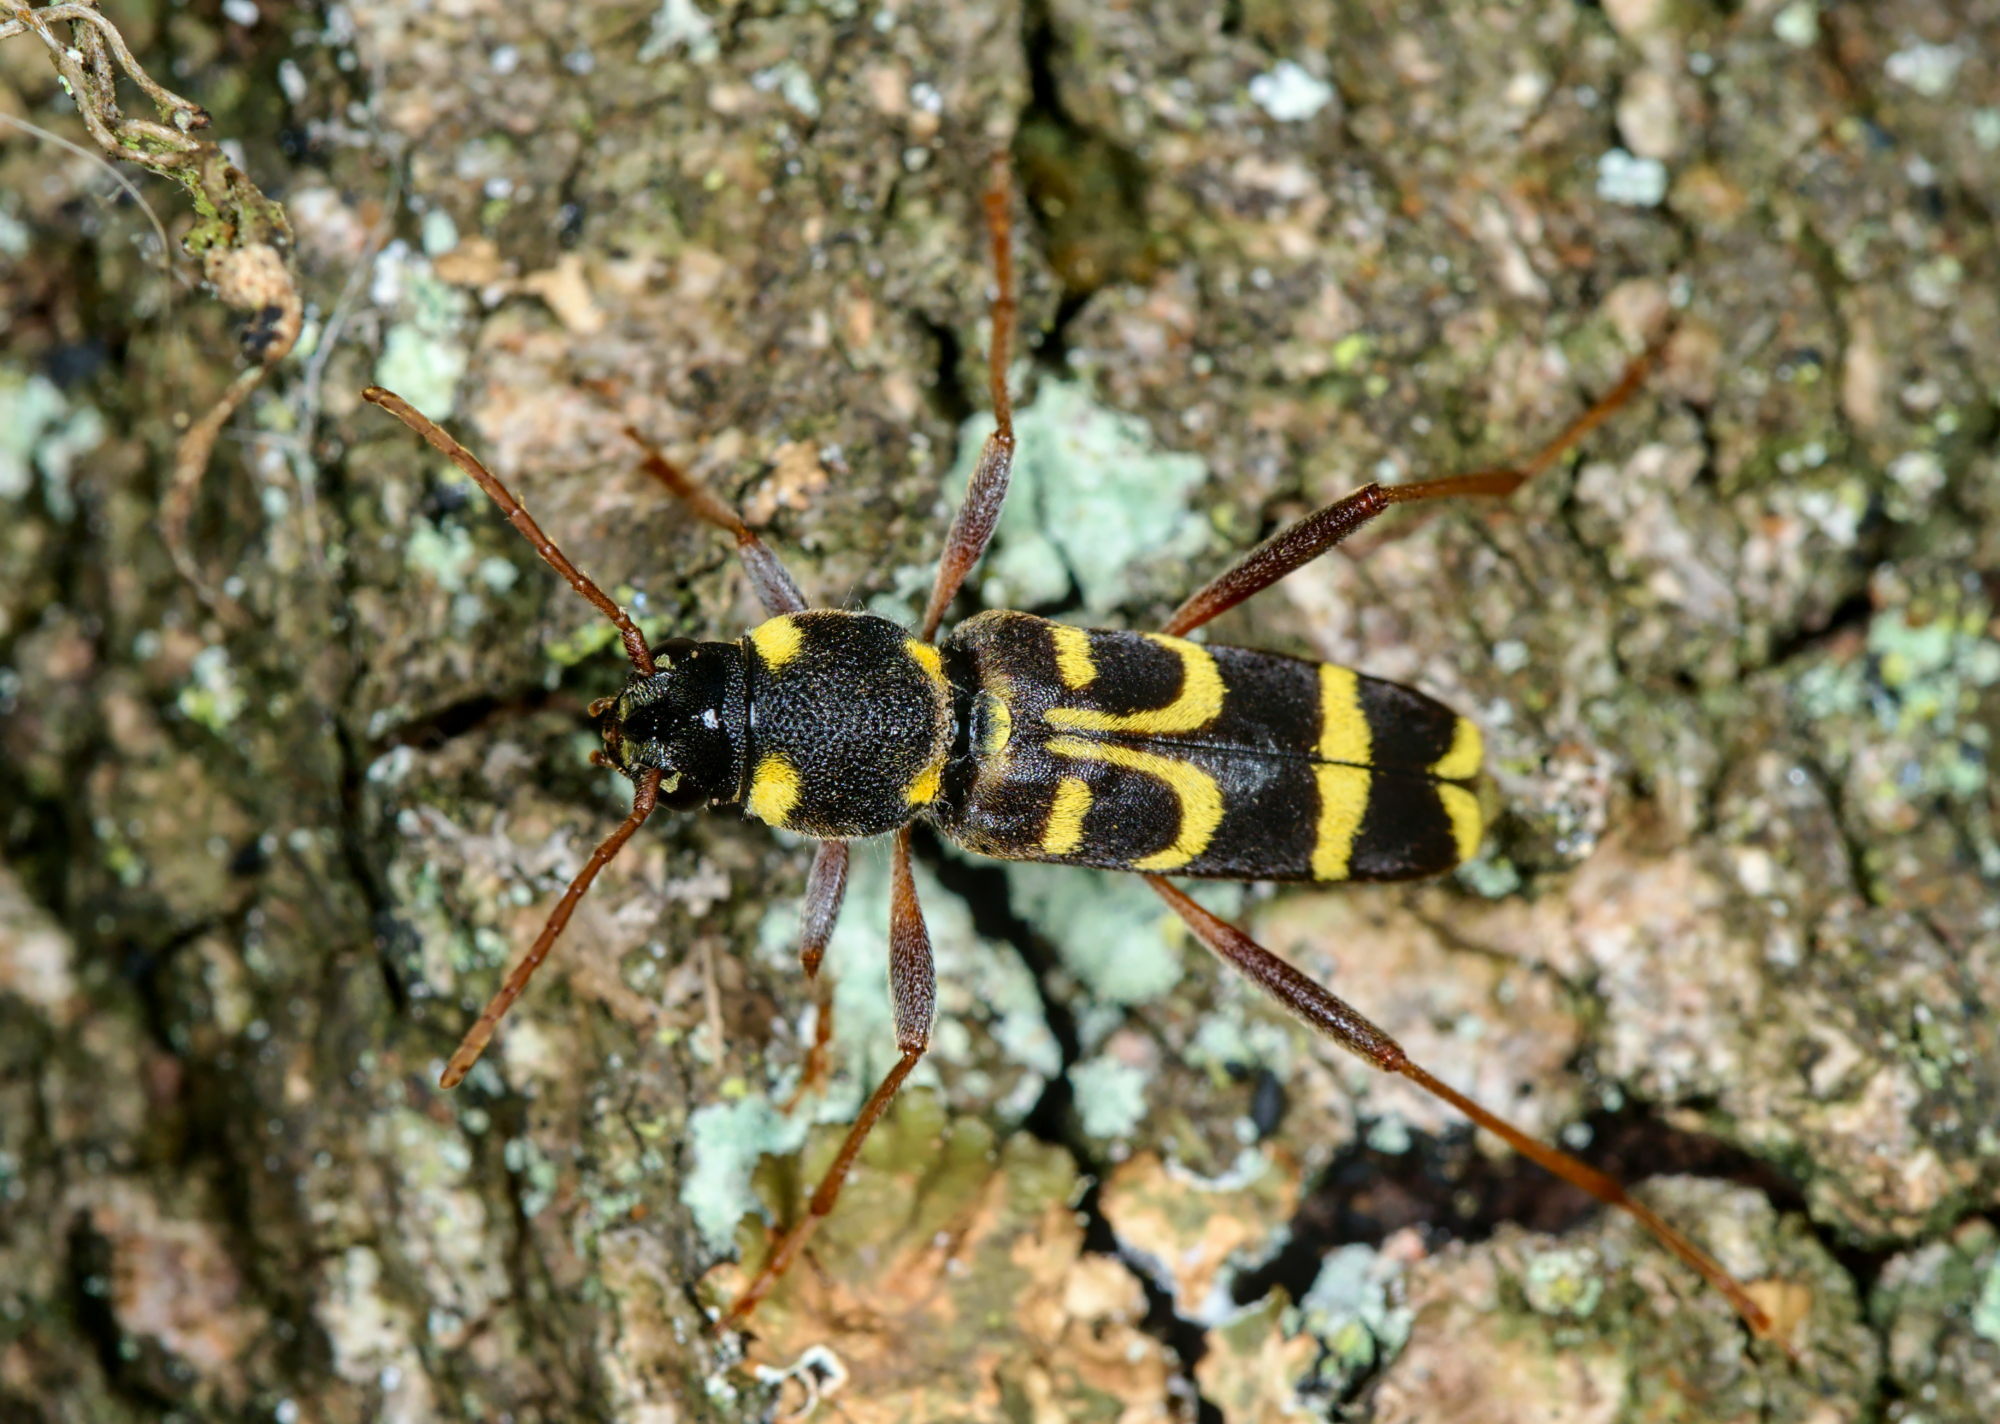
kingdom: Animalia
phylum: Arthropoda
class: Insecta
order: Coleoptera
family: Cerambycidae
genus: Xylotrechus
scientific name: Xylotrechus arvicola
